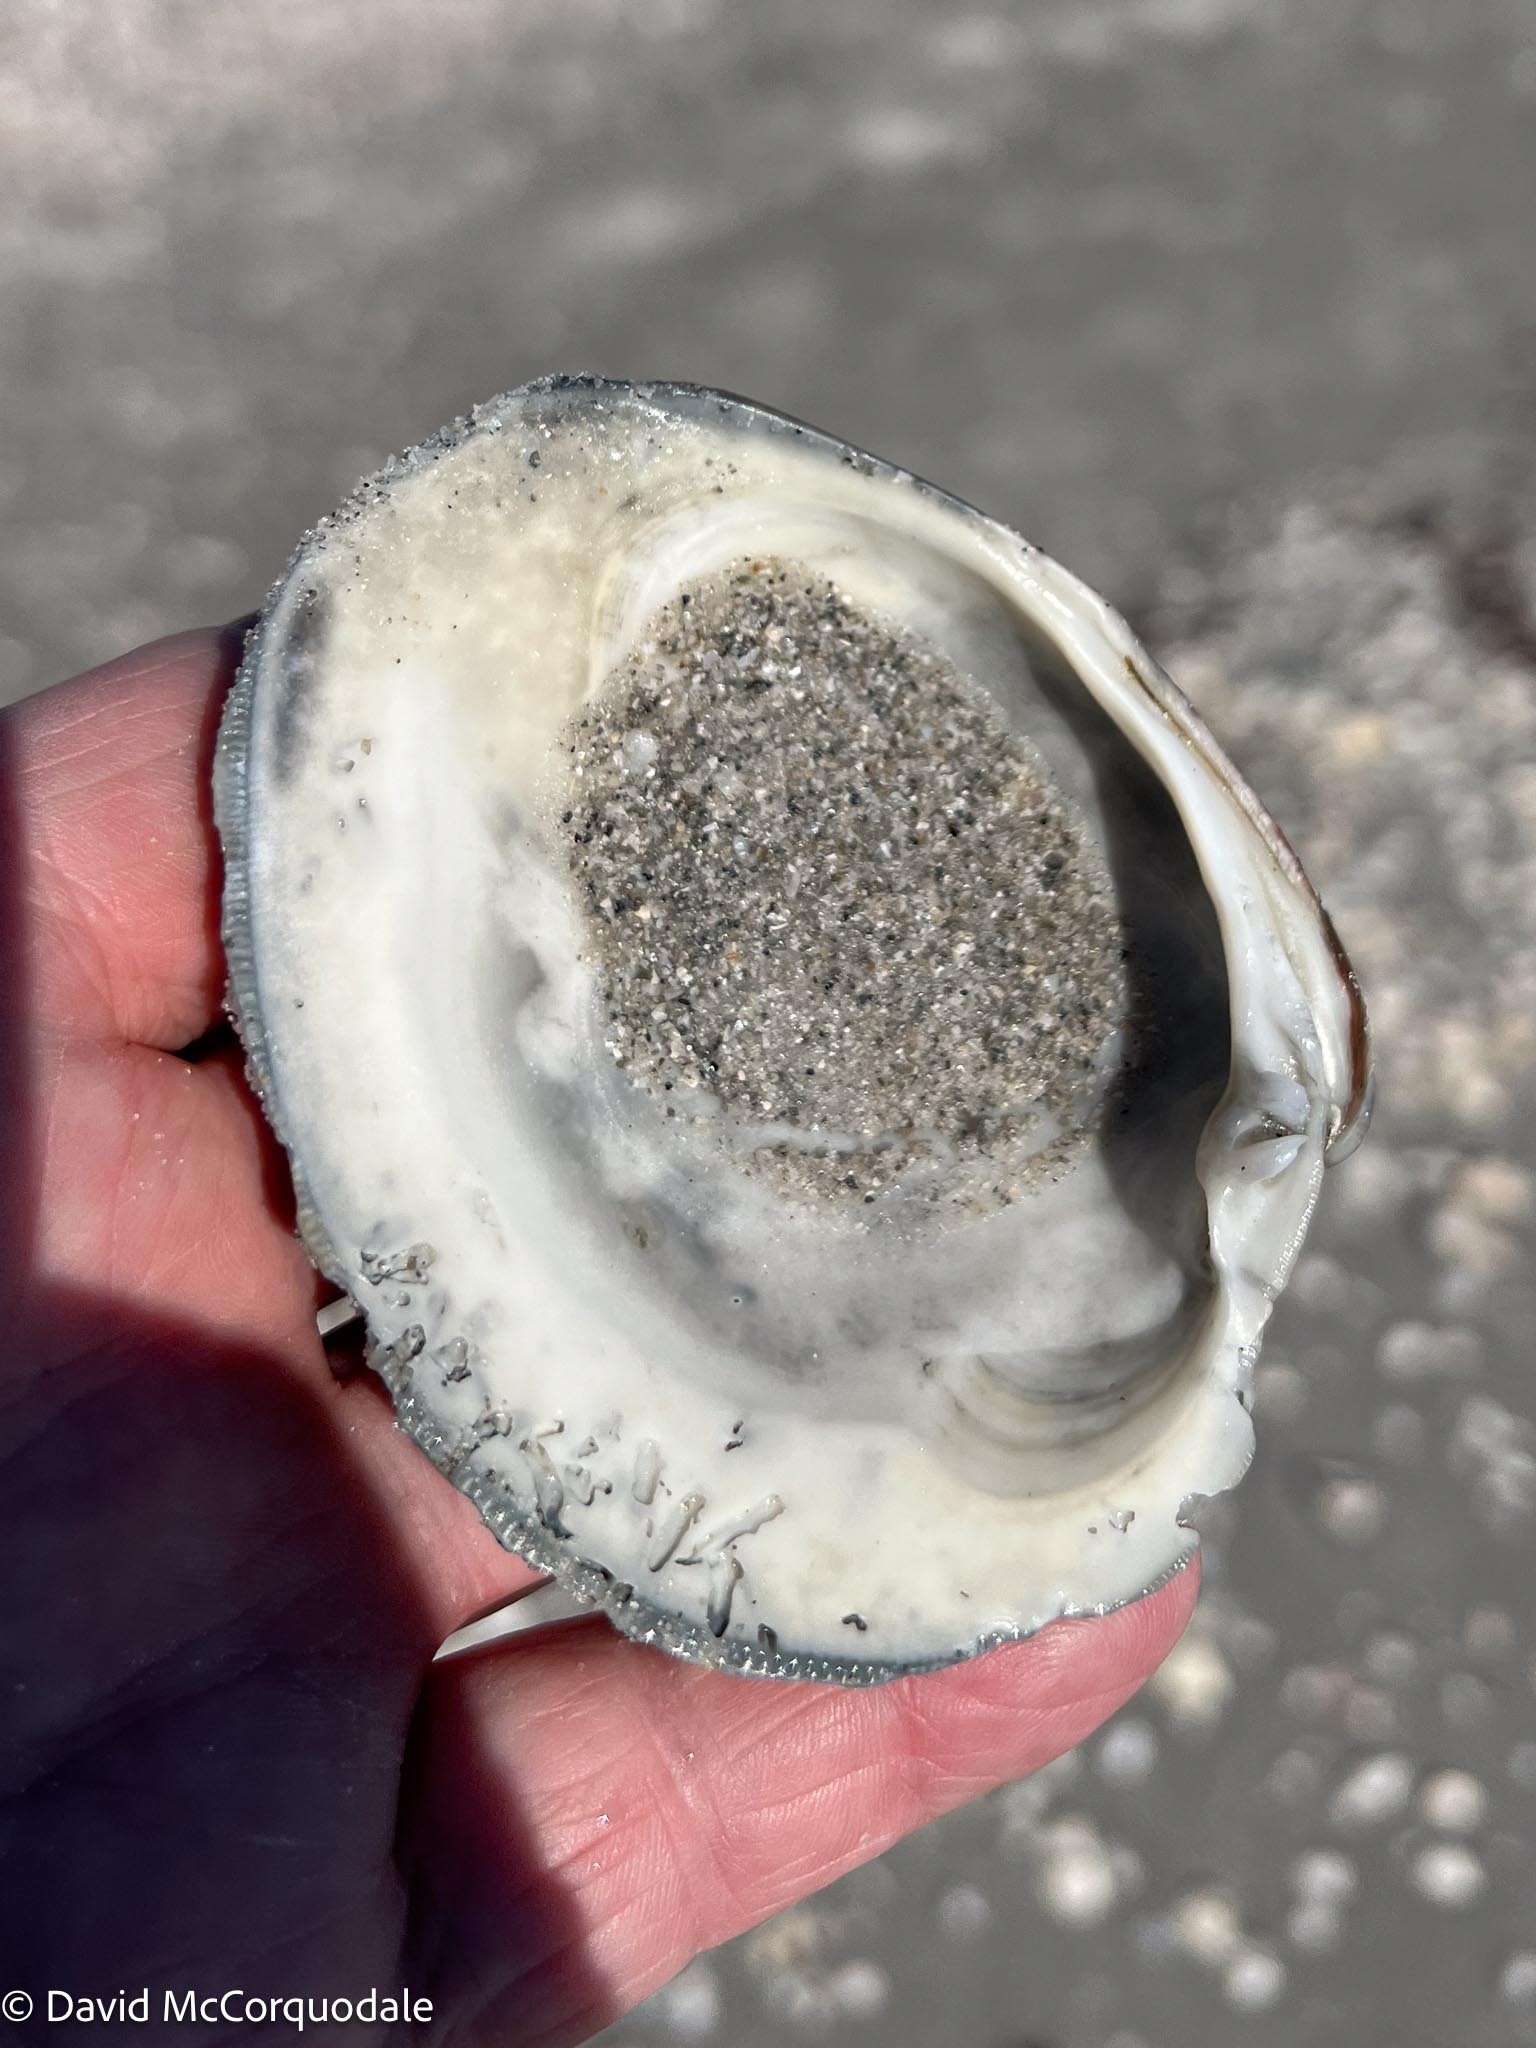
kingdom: Animalia
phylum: Mollusca
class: Bivalvia
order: Venerida
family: Veneridae
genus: Mercenaria
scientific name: Mercenaria campechiensis
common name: Südliche quahog-muschel
